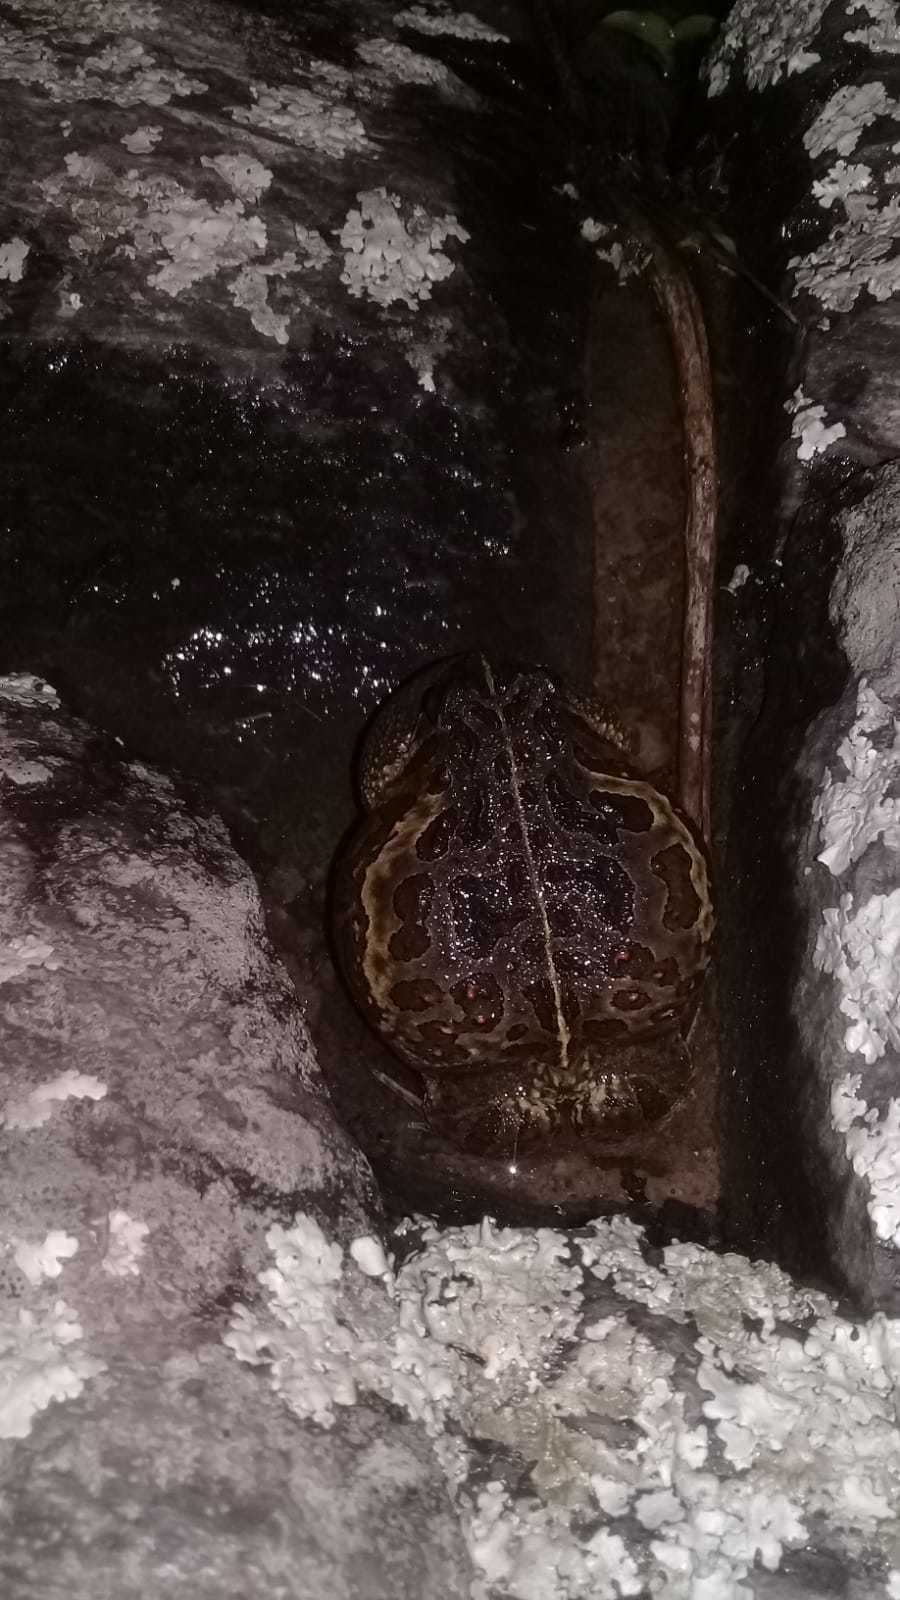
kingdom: Animalia
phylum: Chordata
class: Amphibia
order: Anura
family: Odontophrynidae
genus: Odontophrynus
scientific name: Odontophrynus
